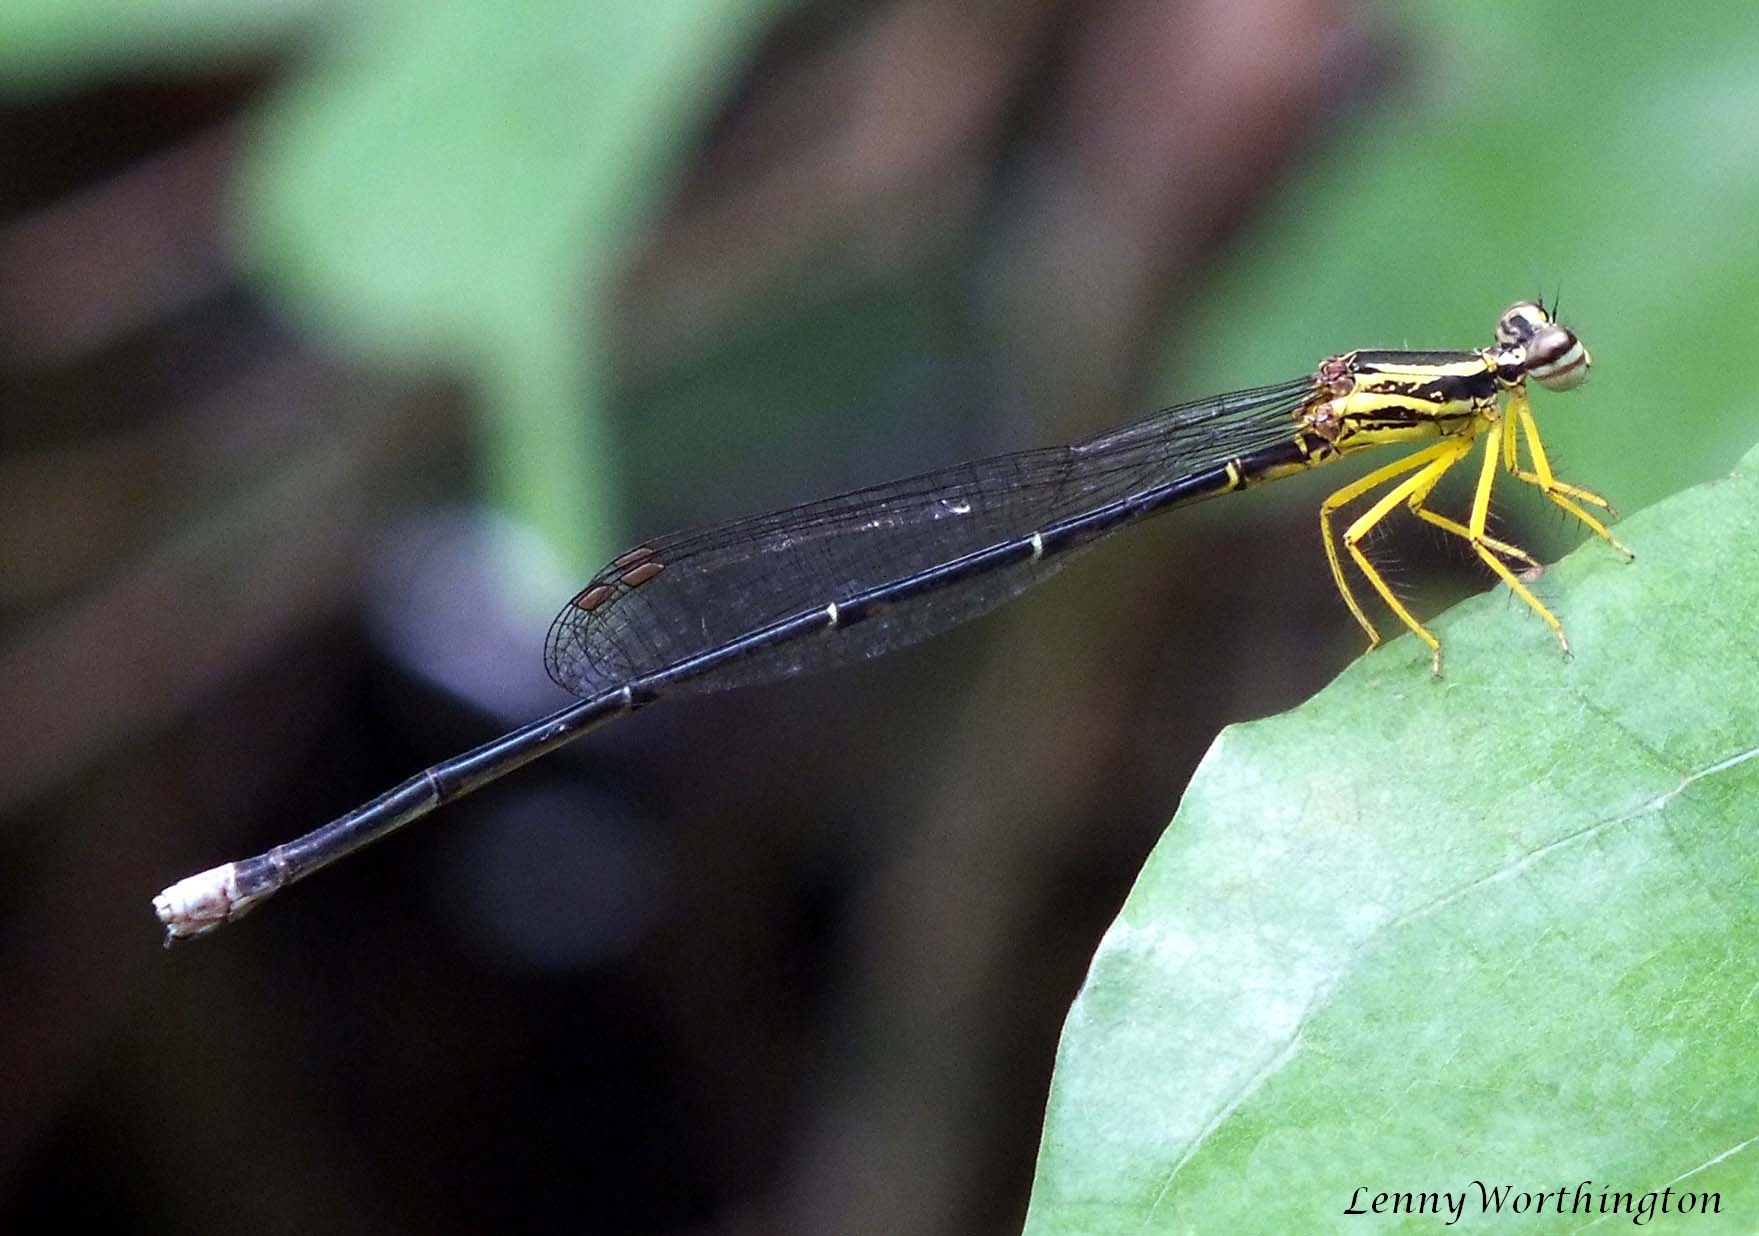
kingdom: Animalia
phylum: Arthropoda
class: Insecta
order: Odonata
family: Platycnemididae
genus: Copera
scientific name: Copera marginipes
